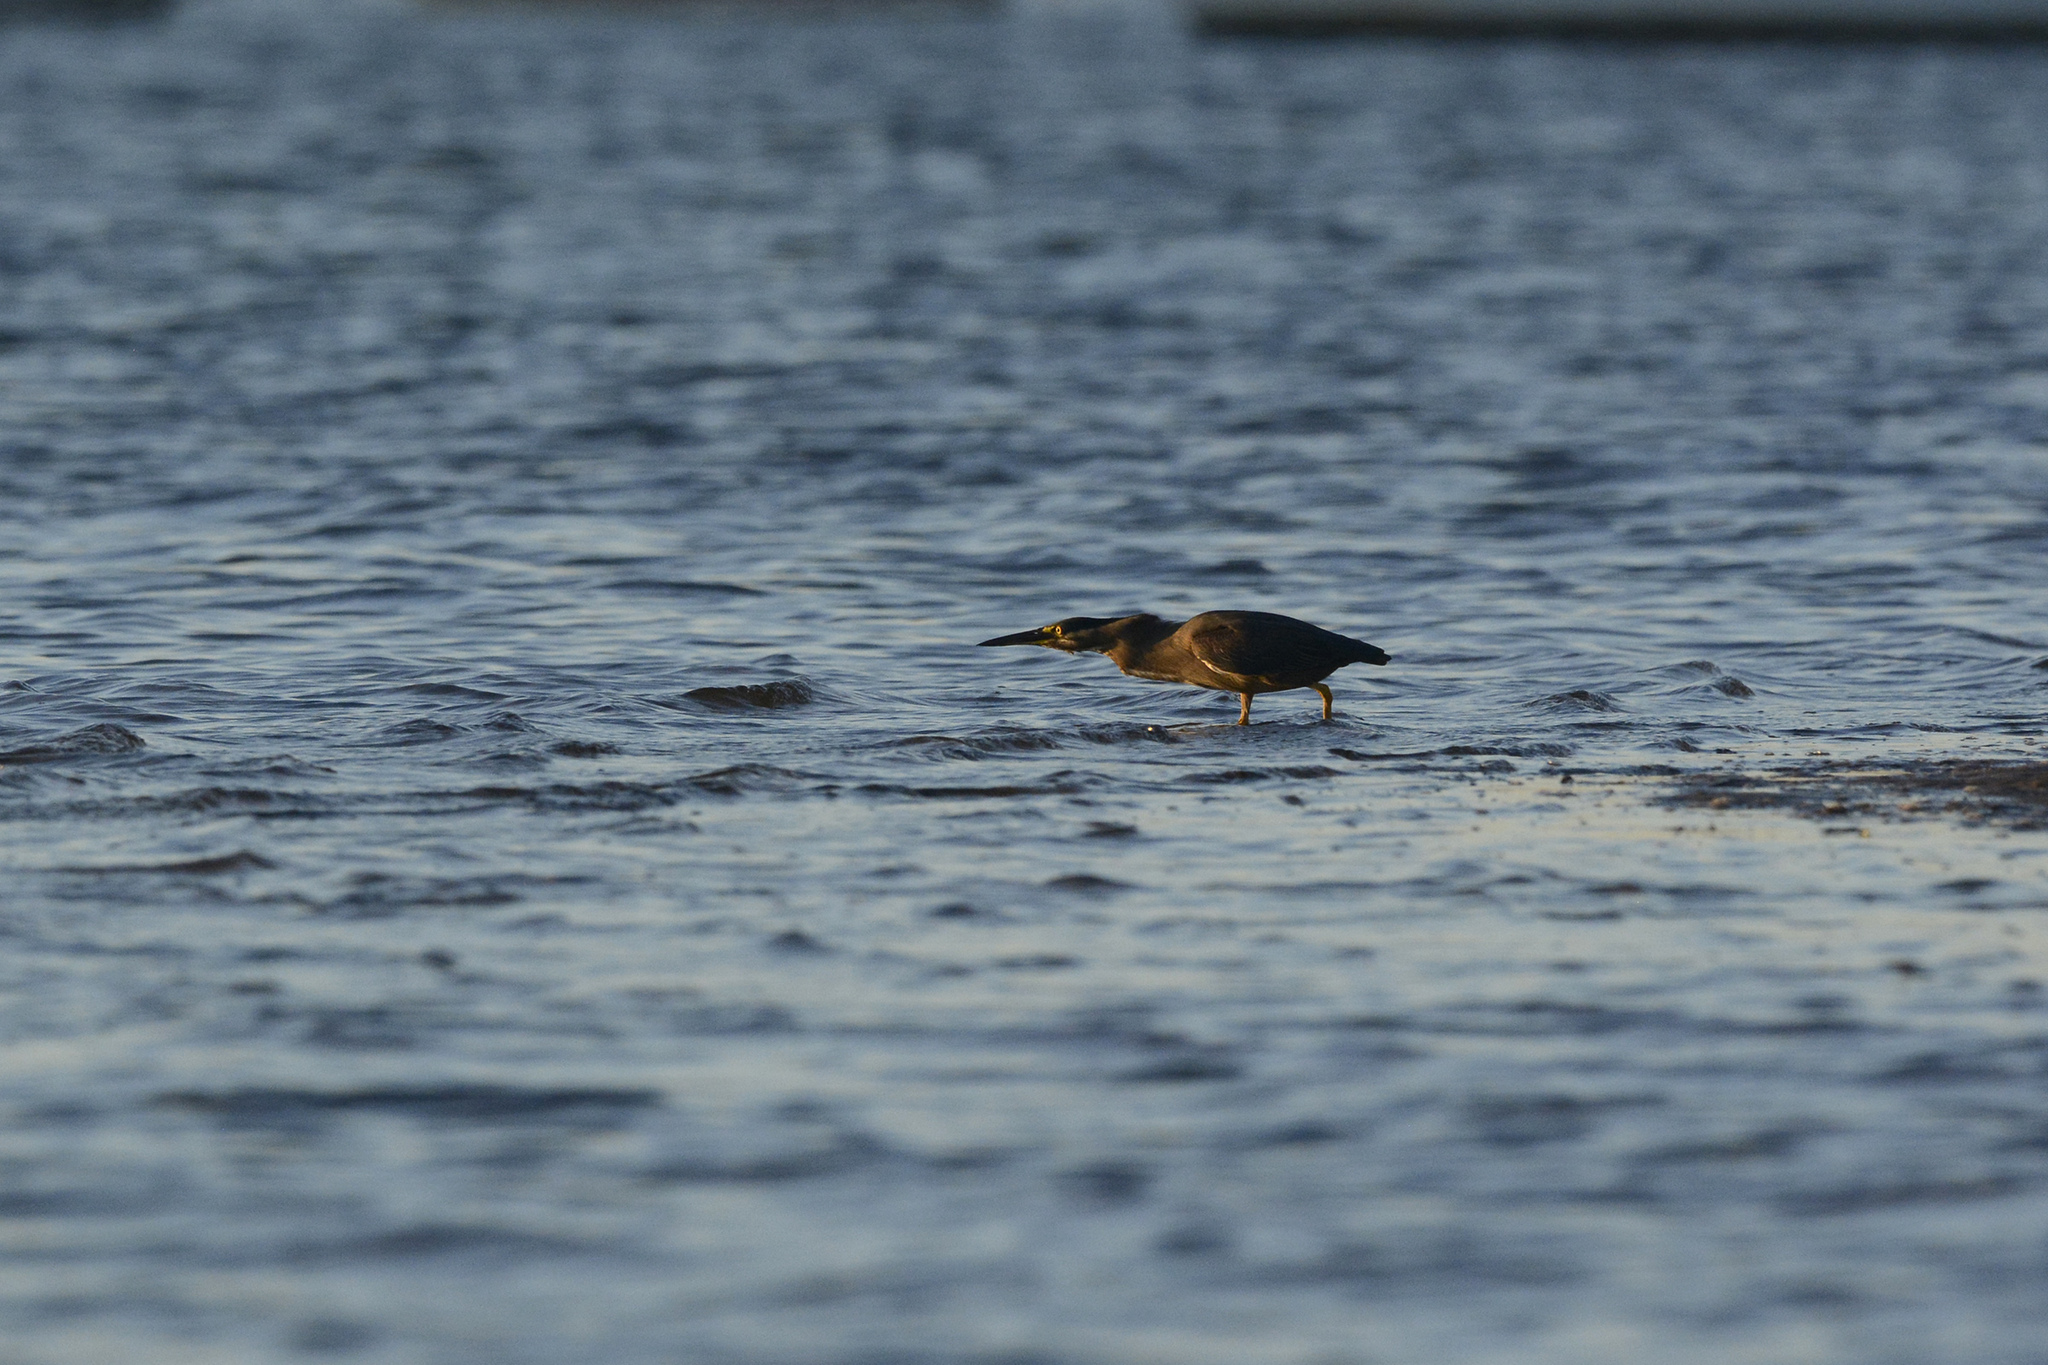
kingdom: Animalia
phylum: Chordata
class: Aves
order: Pelecaniformes
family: Ardeidae
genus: Butorides
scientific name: Butorides striata
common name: Striated heron
